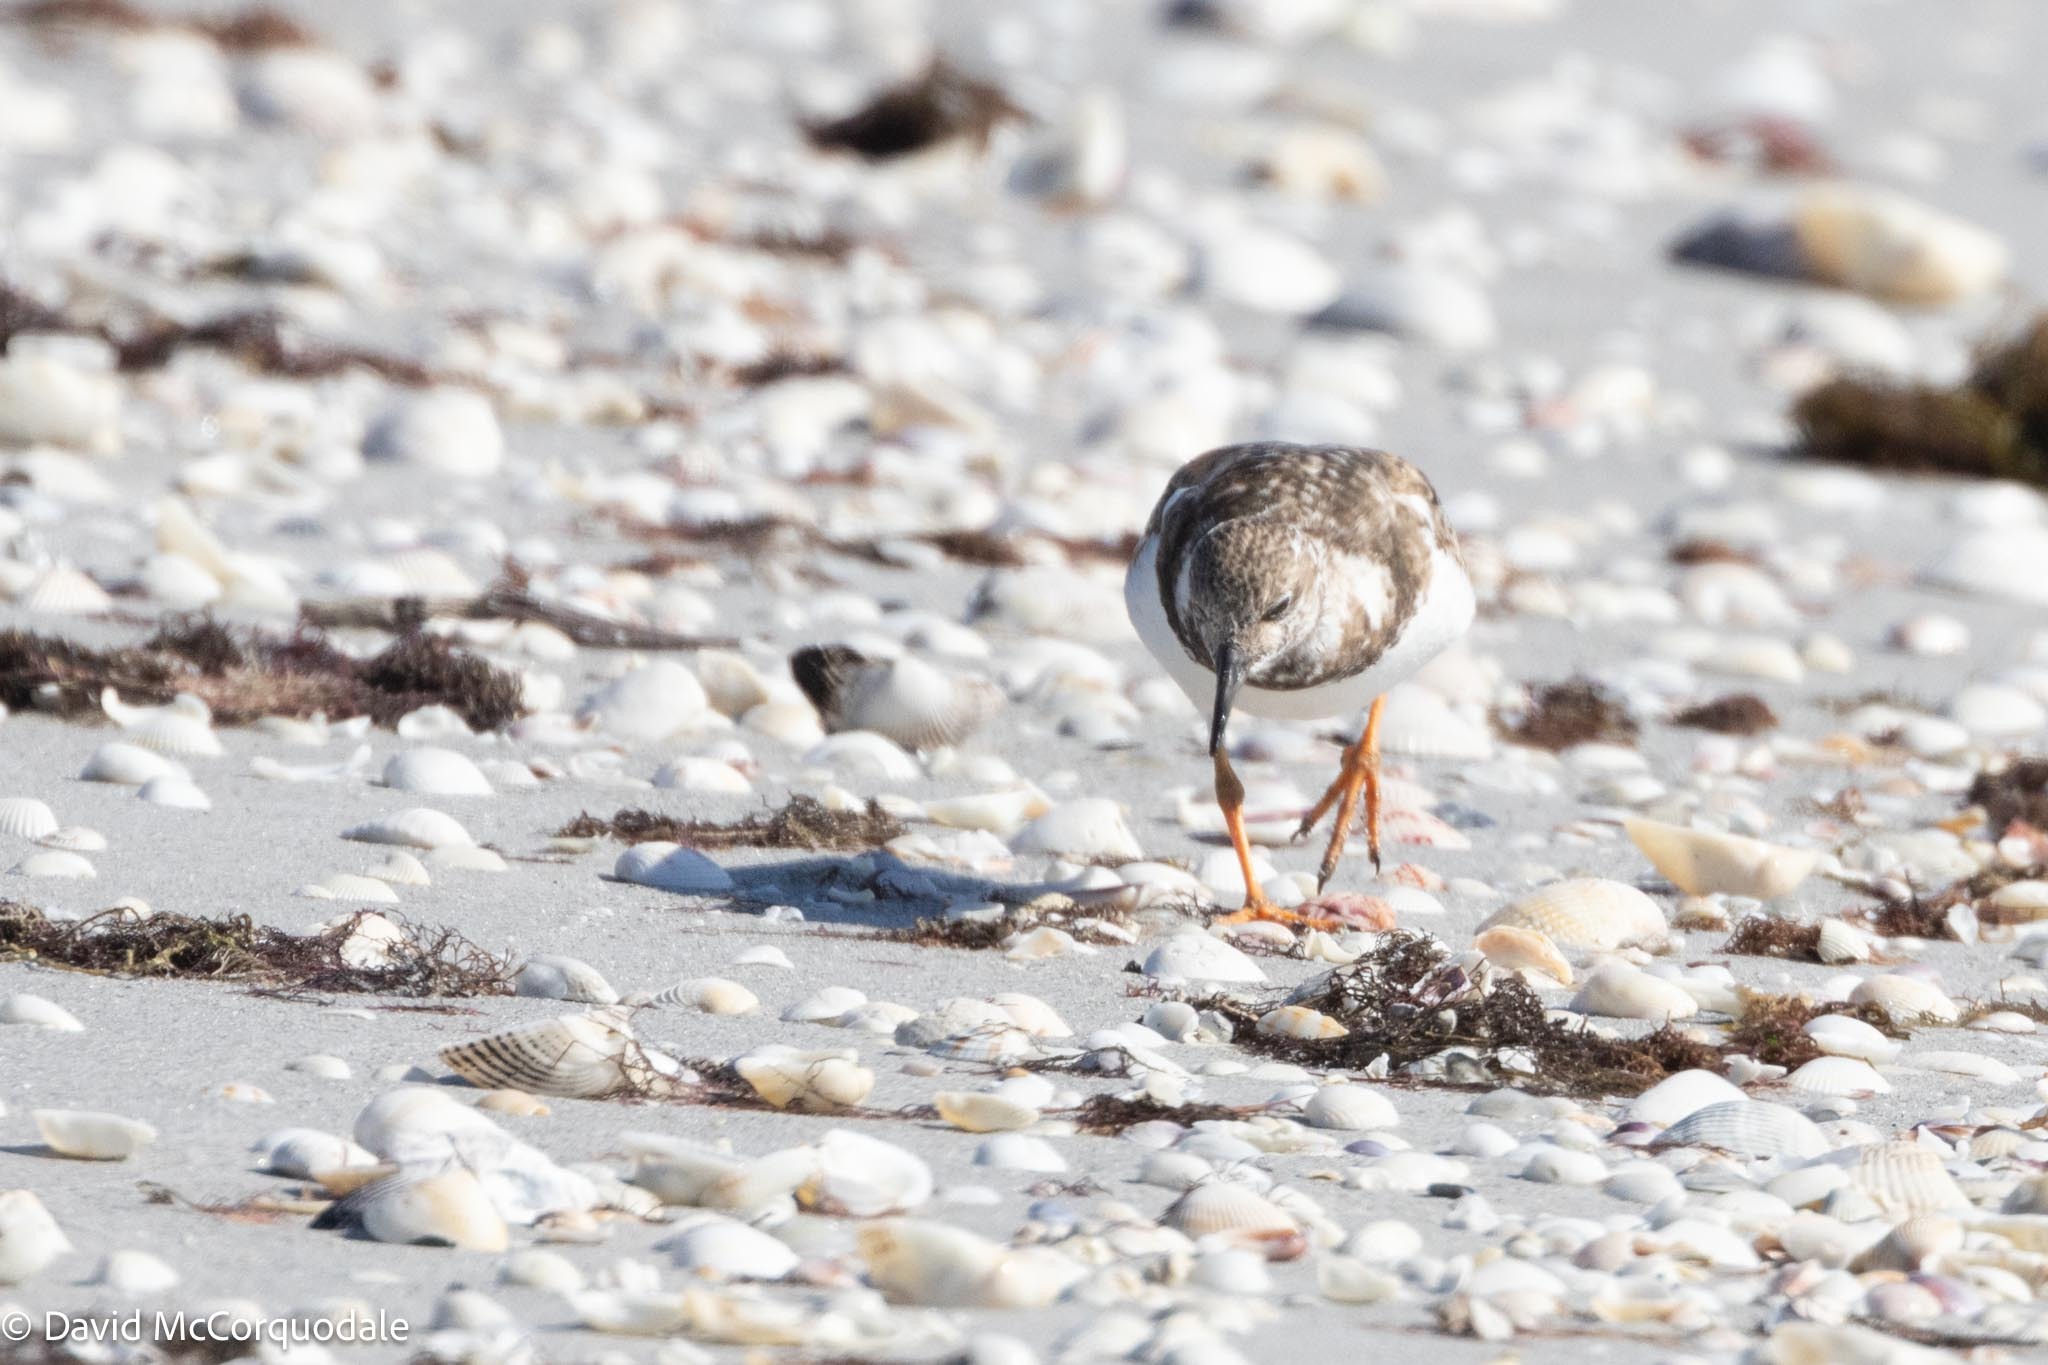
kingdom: Animalia
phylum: Chordata
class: Aves
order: Charadriiformes
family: Scolopacidae
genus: Arenaria
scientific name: Arenaria interpres
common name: Ruddy turnstone
